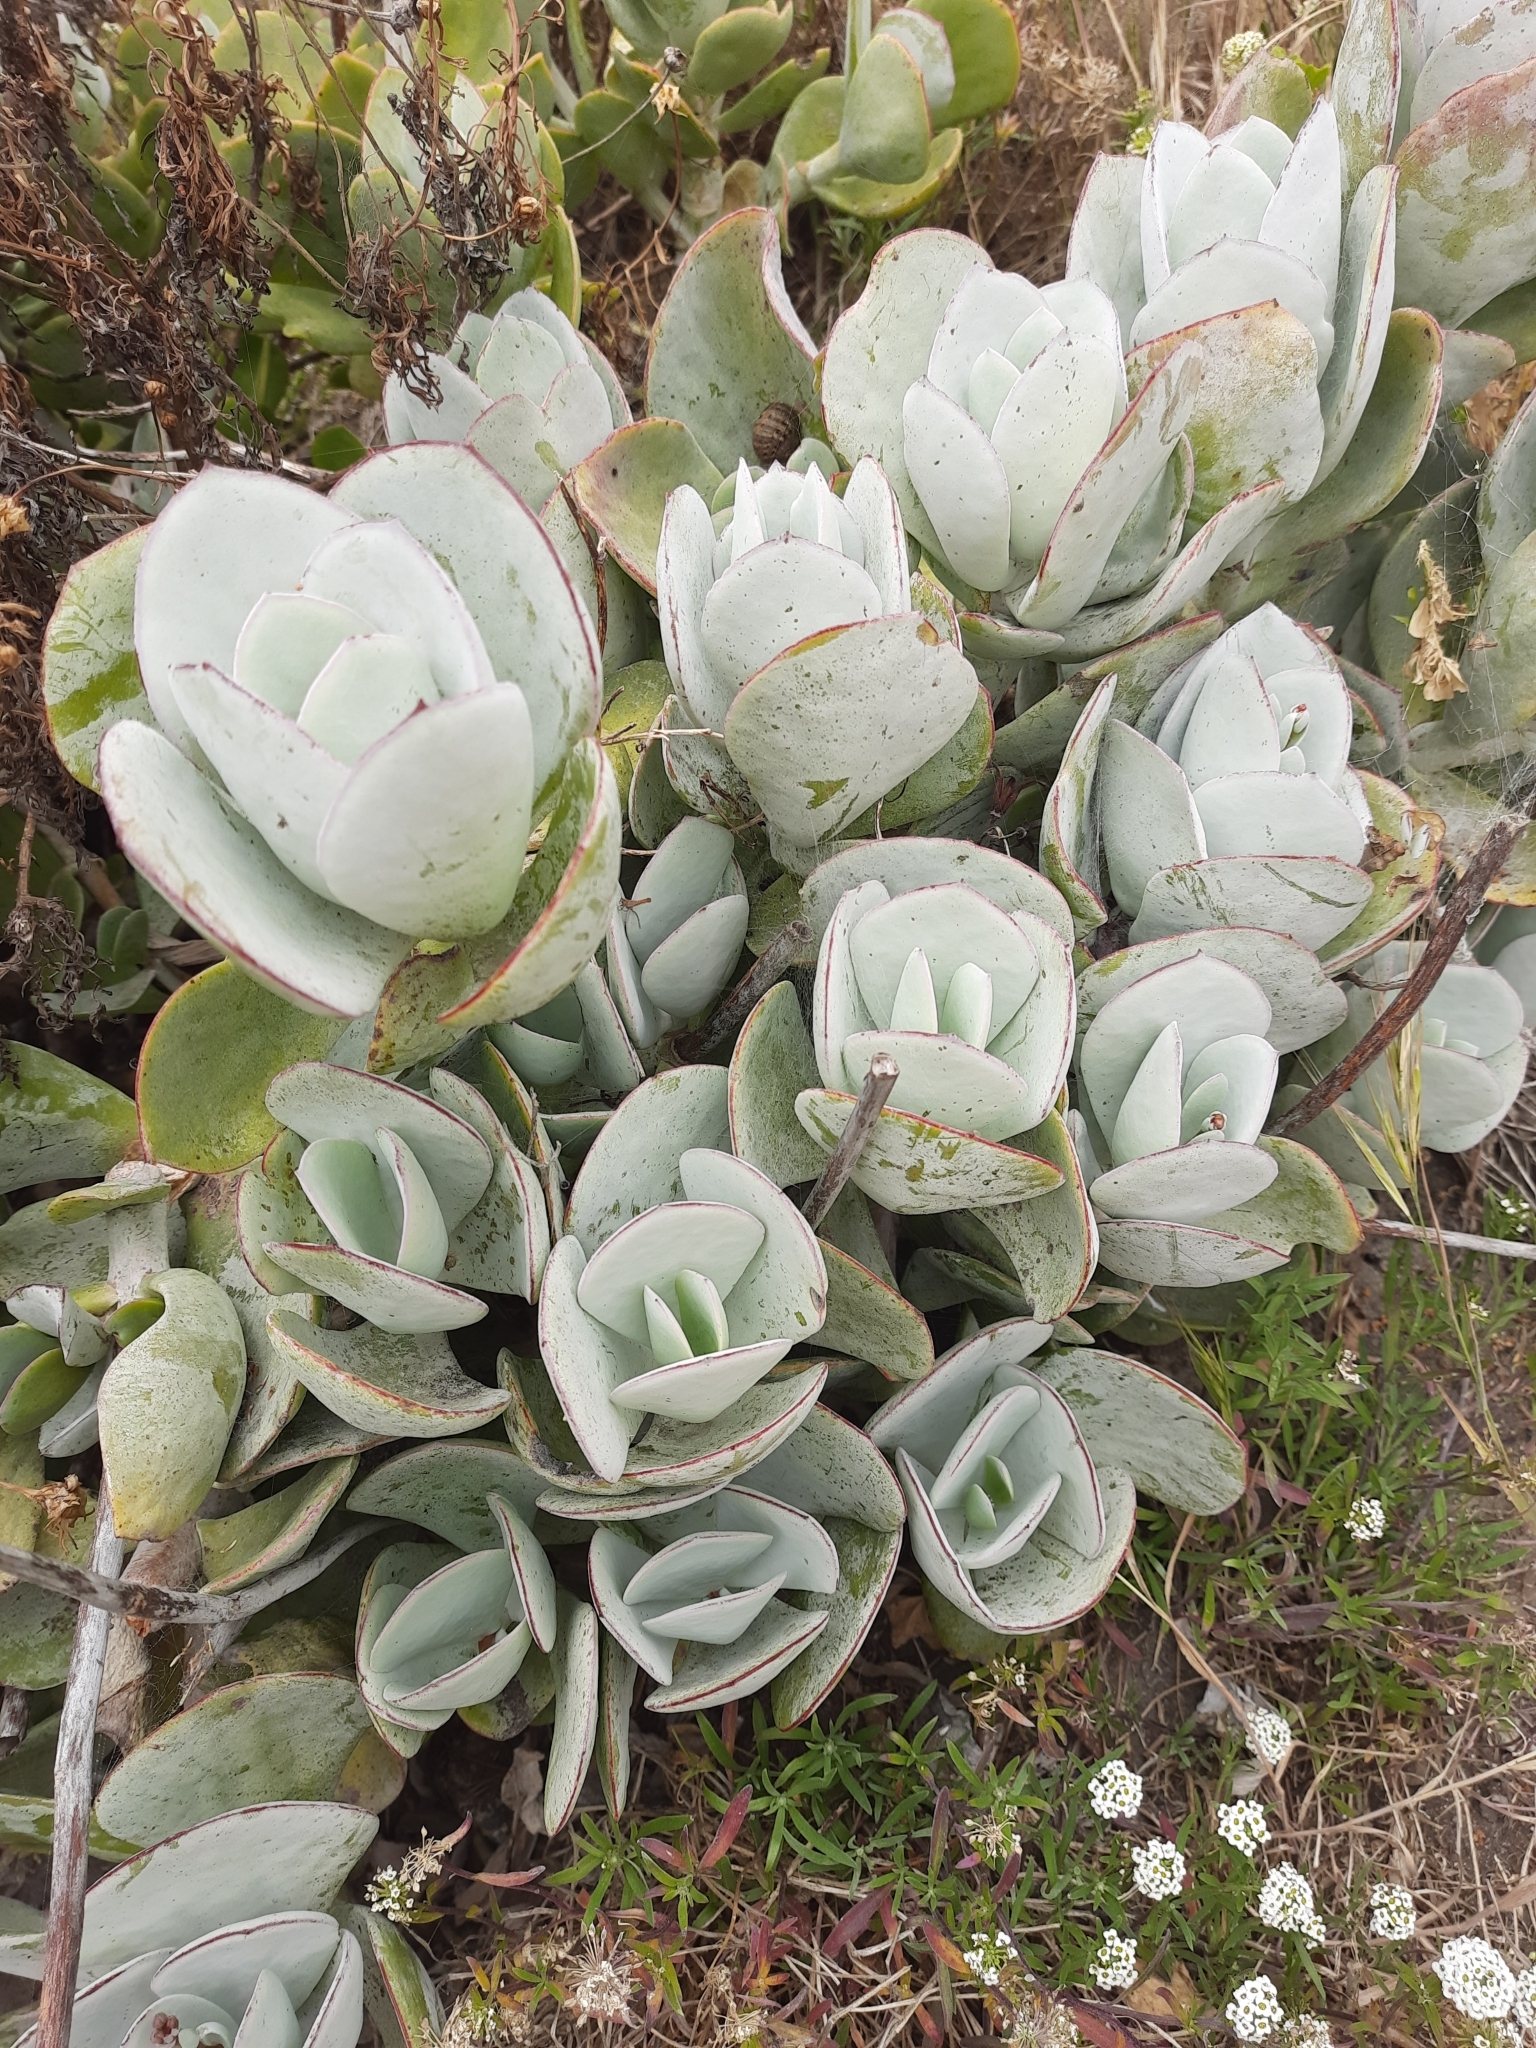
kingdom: Plantae
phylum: Tracheophyta
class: Magnoliopsida
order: Saxifragales
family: Crassulaceae
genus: Cotyledon
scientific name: Cotyledon orbiculata
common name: Pig's ear
